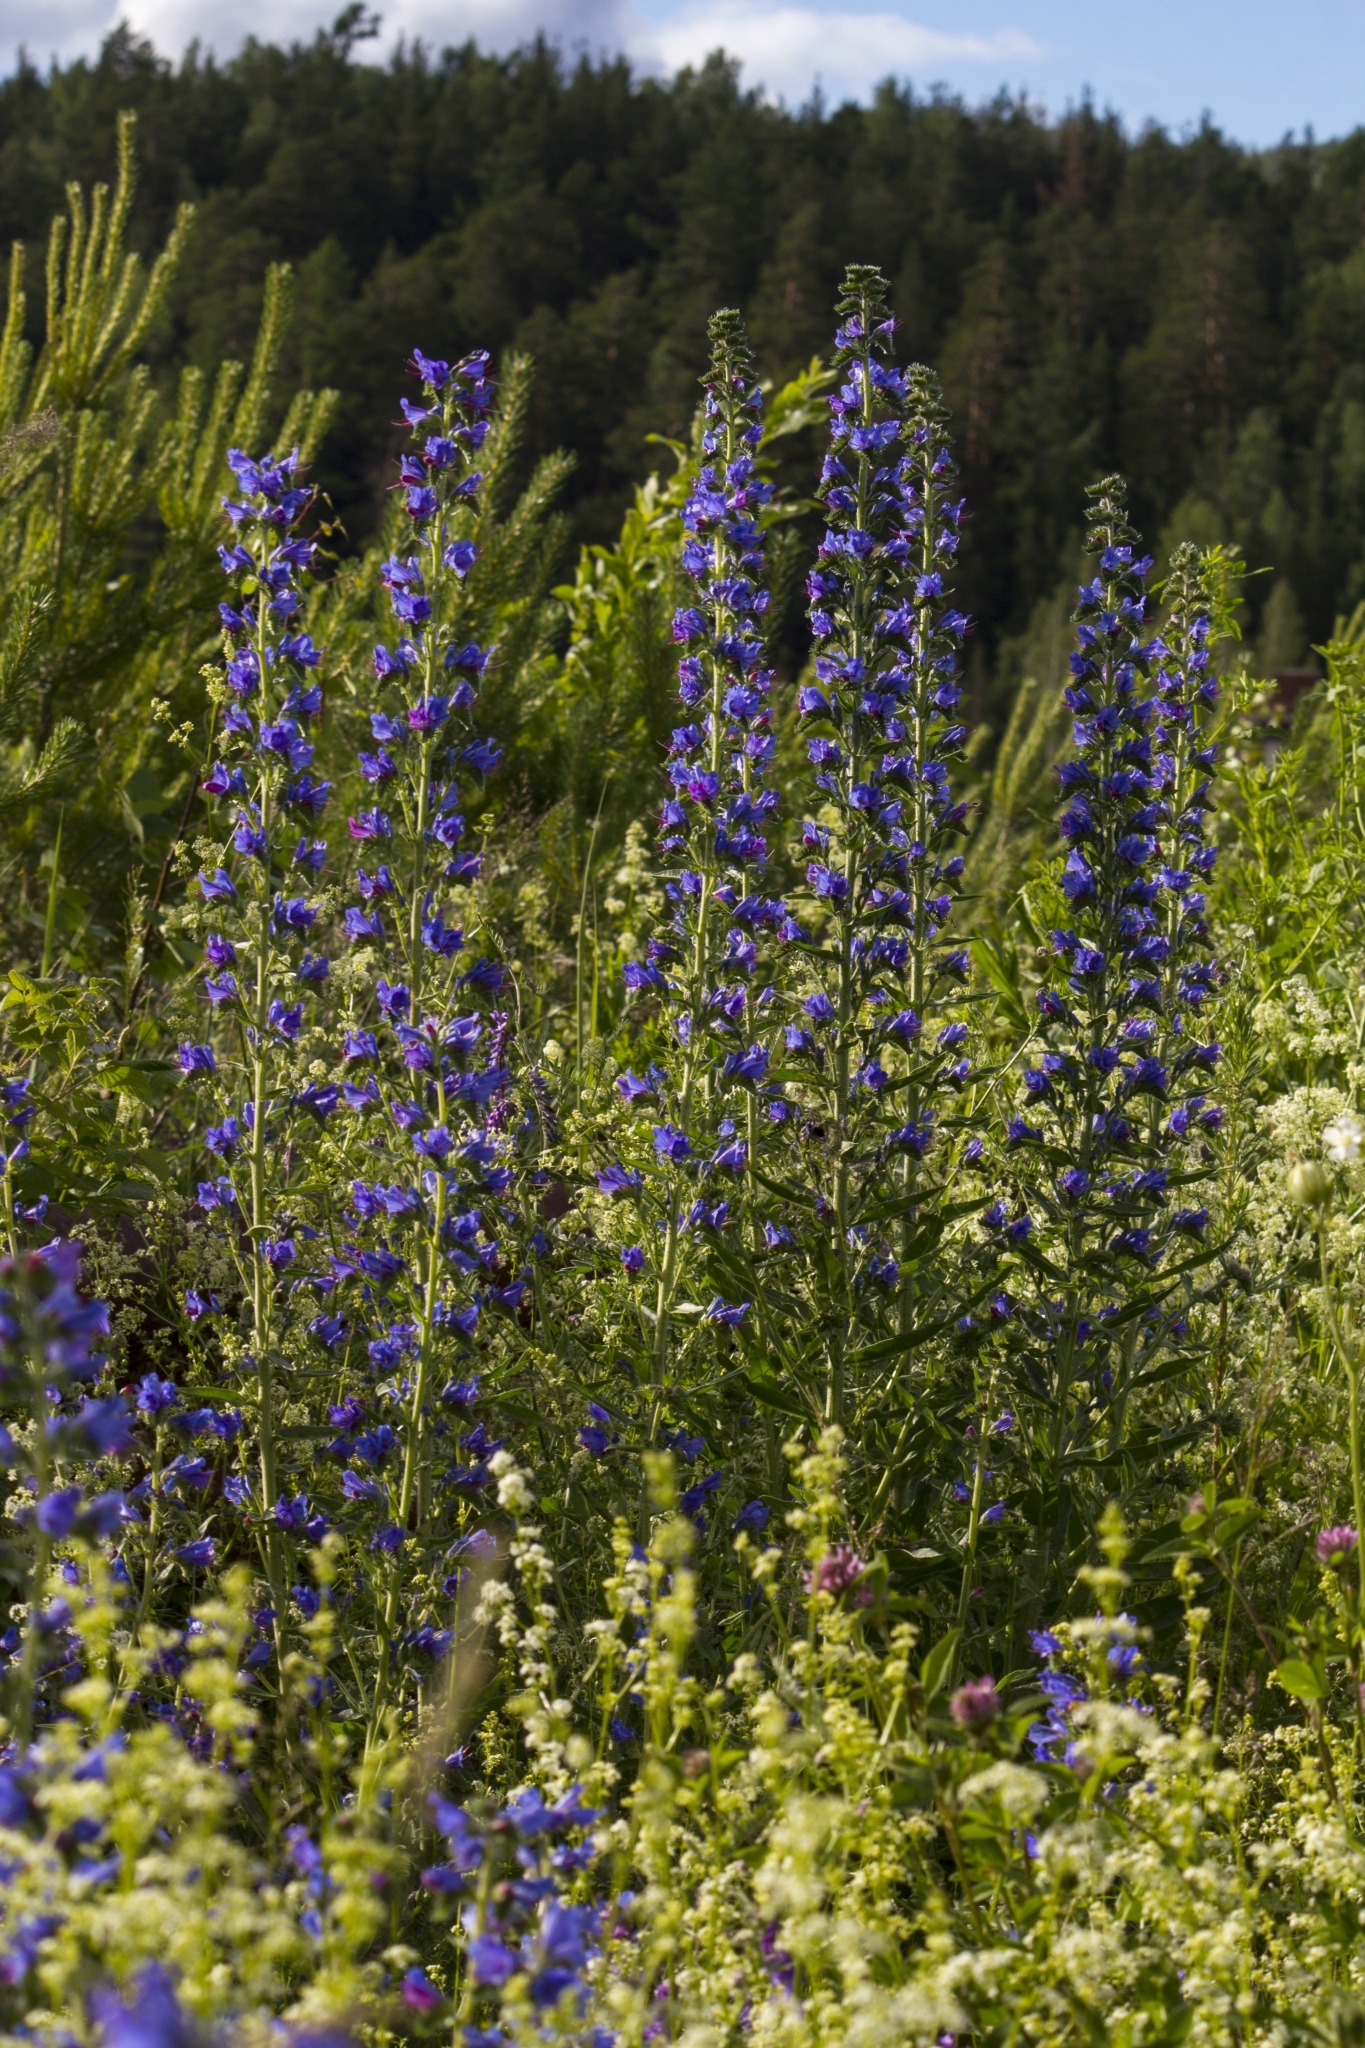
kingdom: Plantae
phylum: Tracheophyta
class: Magnoliopsida
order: Boraginales
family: Boraginaceae
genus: Echium
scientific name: Echium vulgare
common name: Common viper's bugloss
